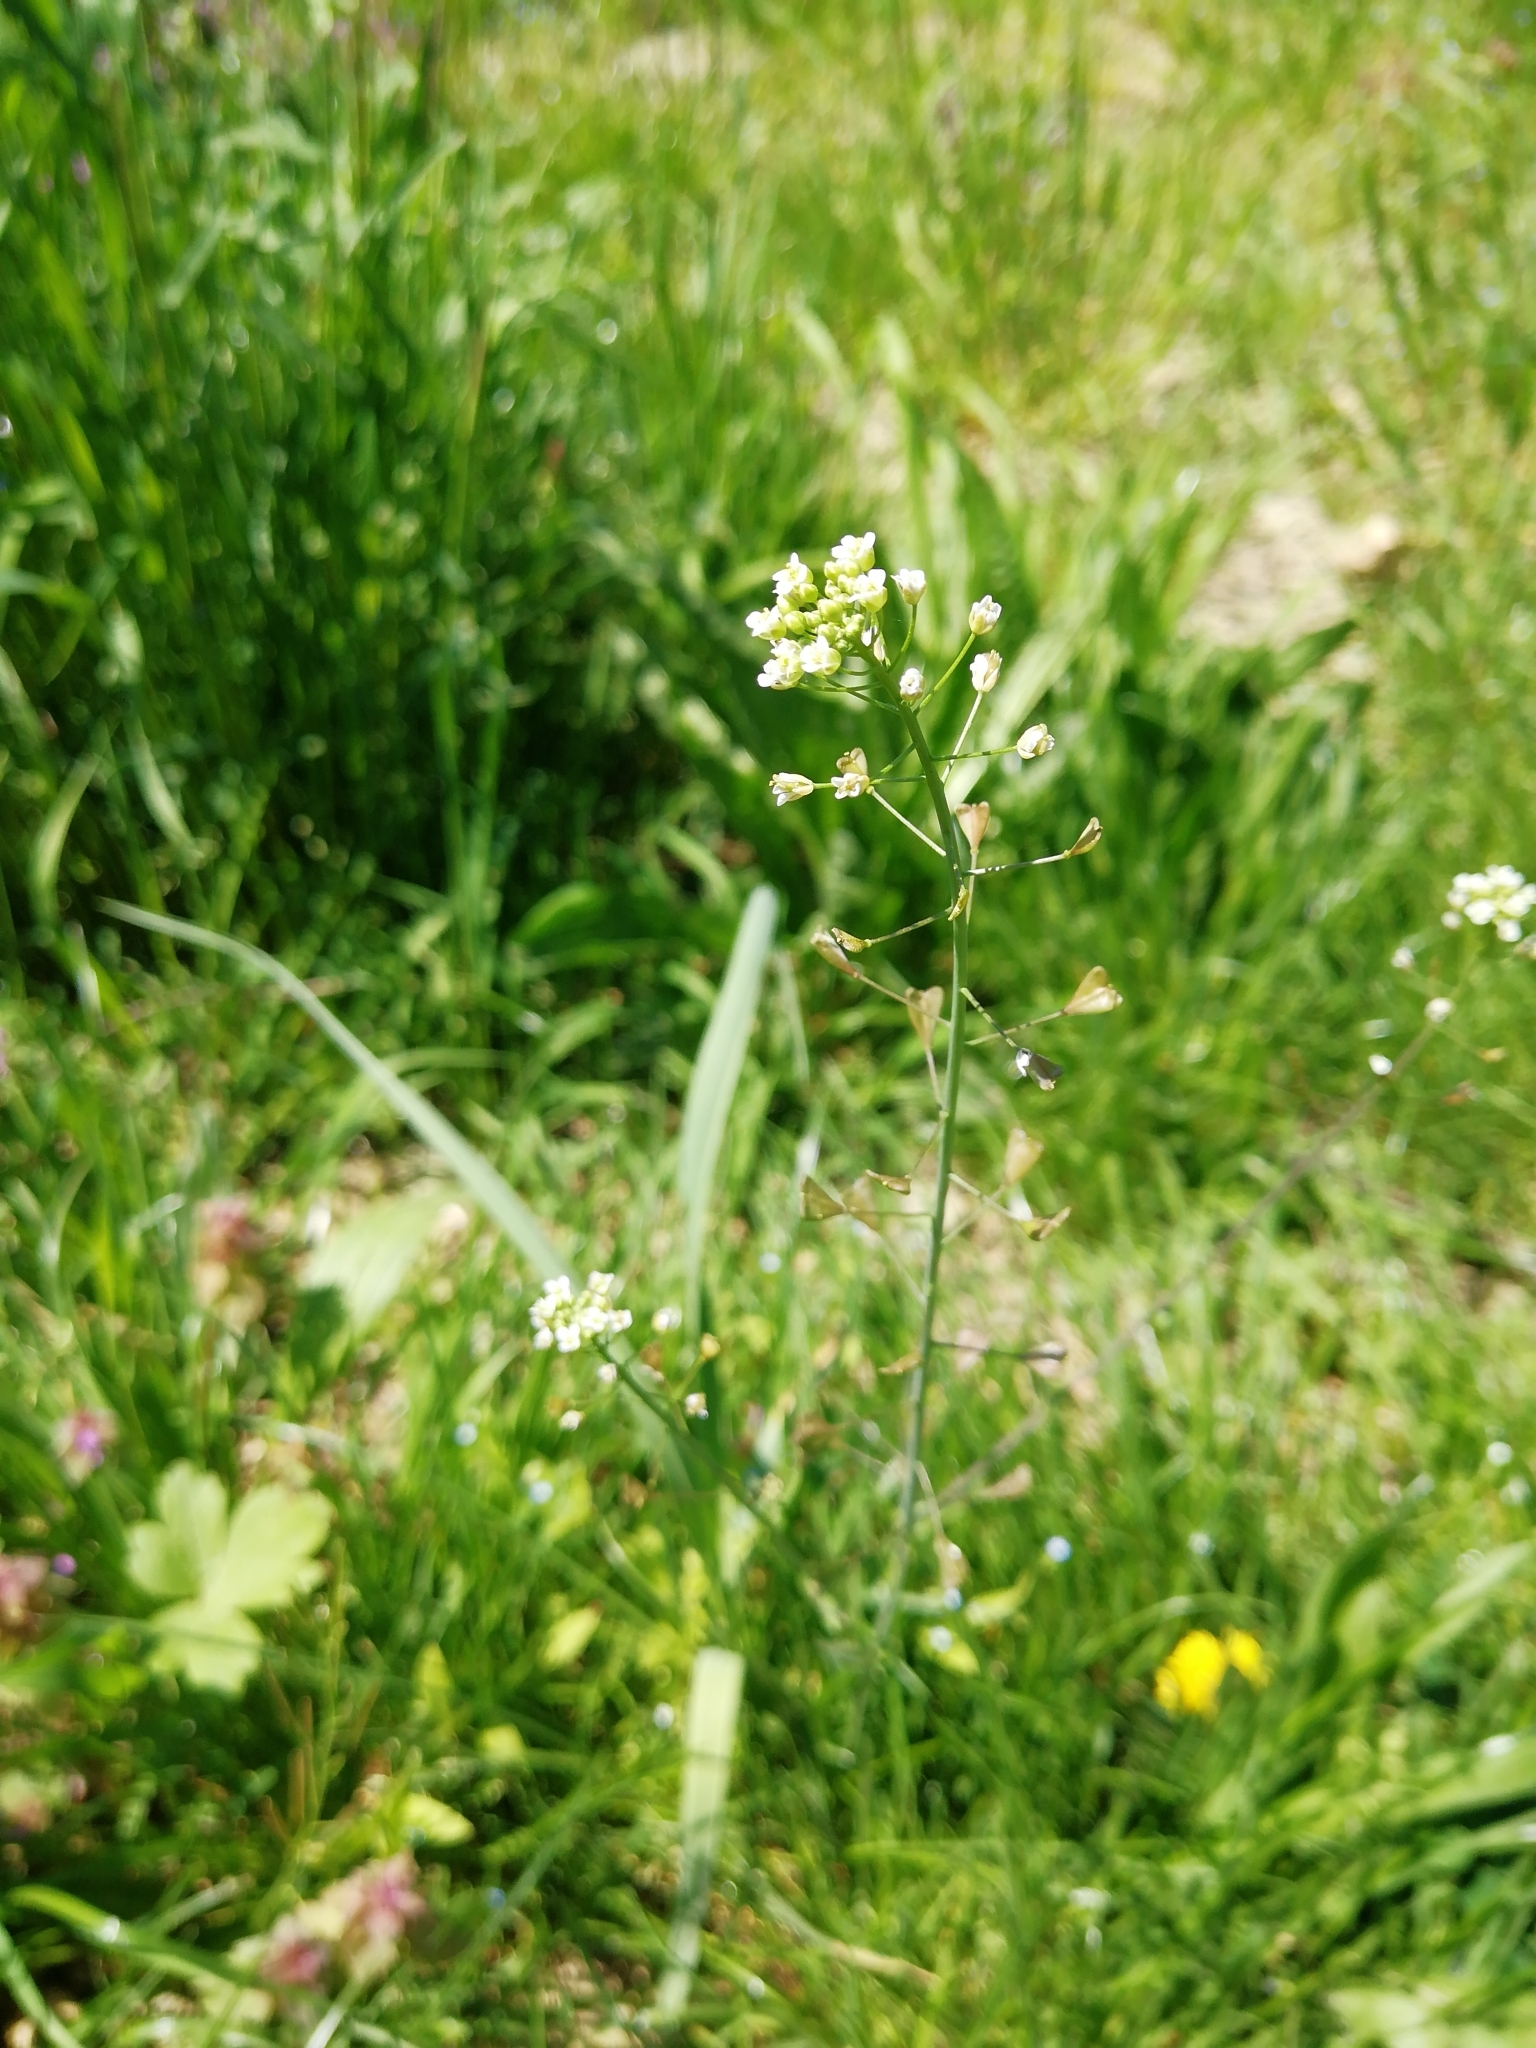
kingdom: Plantae
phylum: Tracheophyta
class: Magnoliopsida
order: Brassicales
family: Brassicaceae
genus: Capsella
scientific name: Capsella bursa-pastoris
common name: Shepherd's purse
